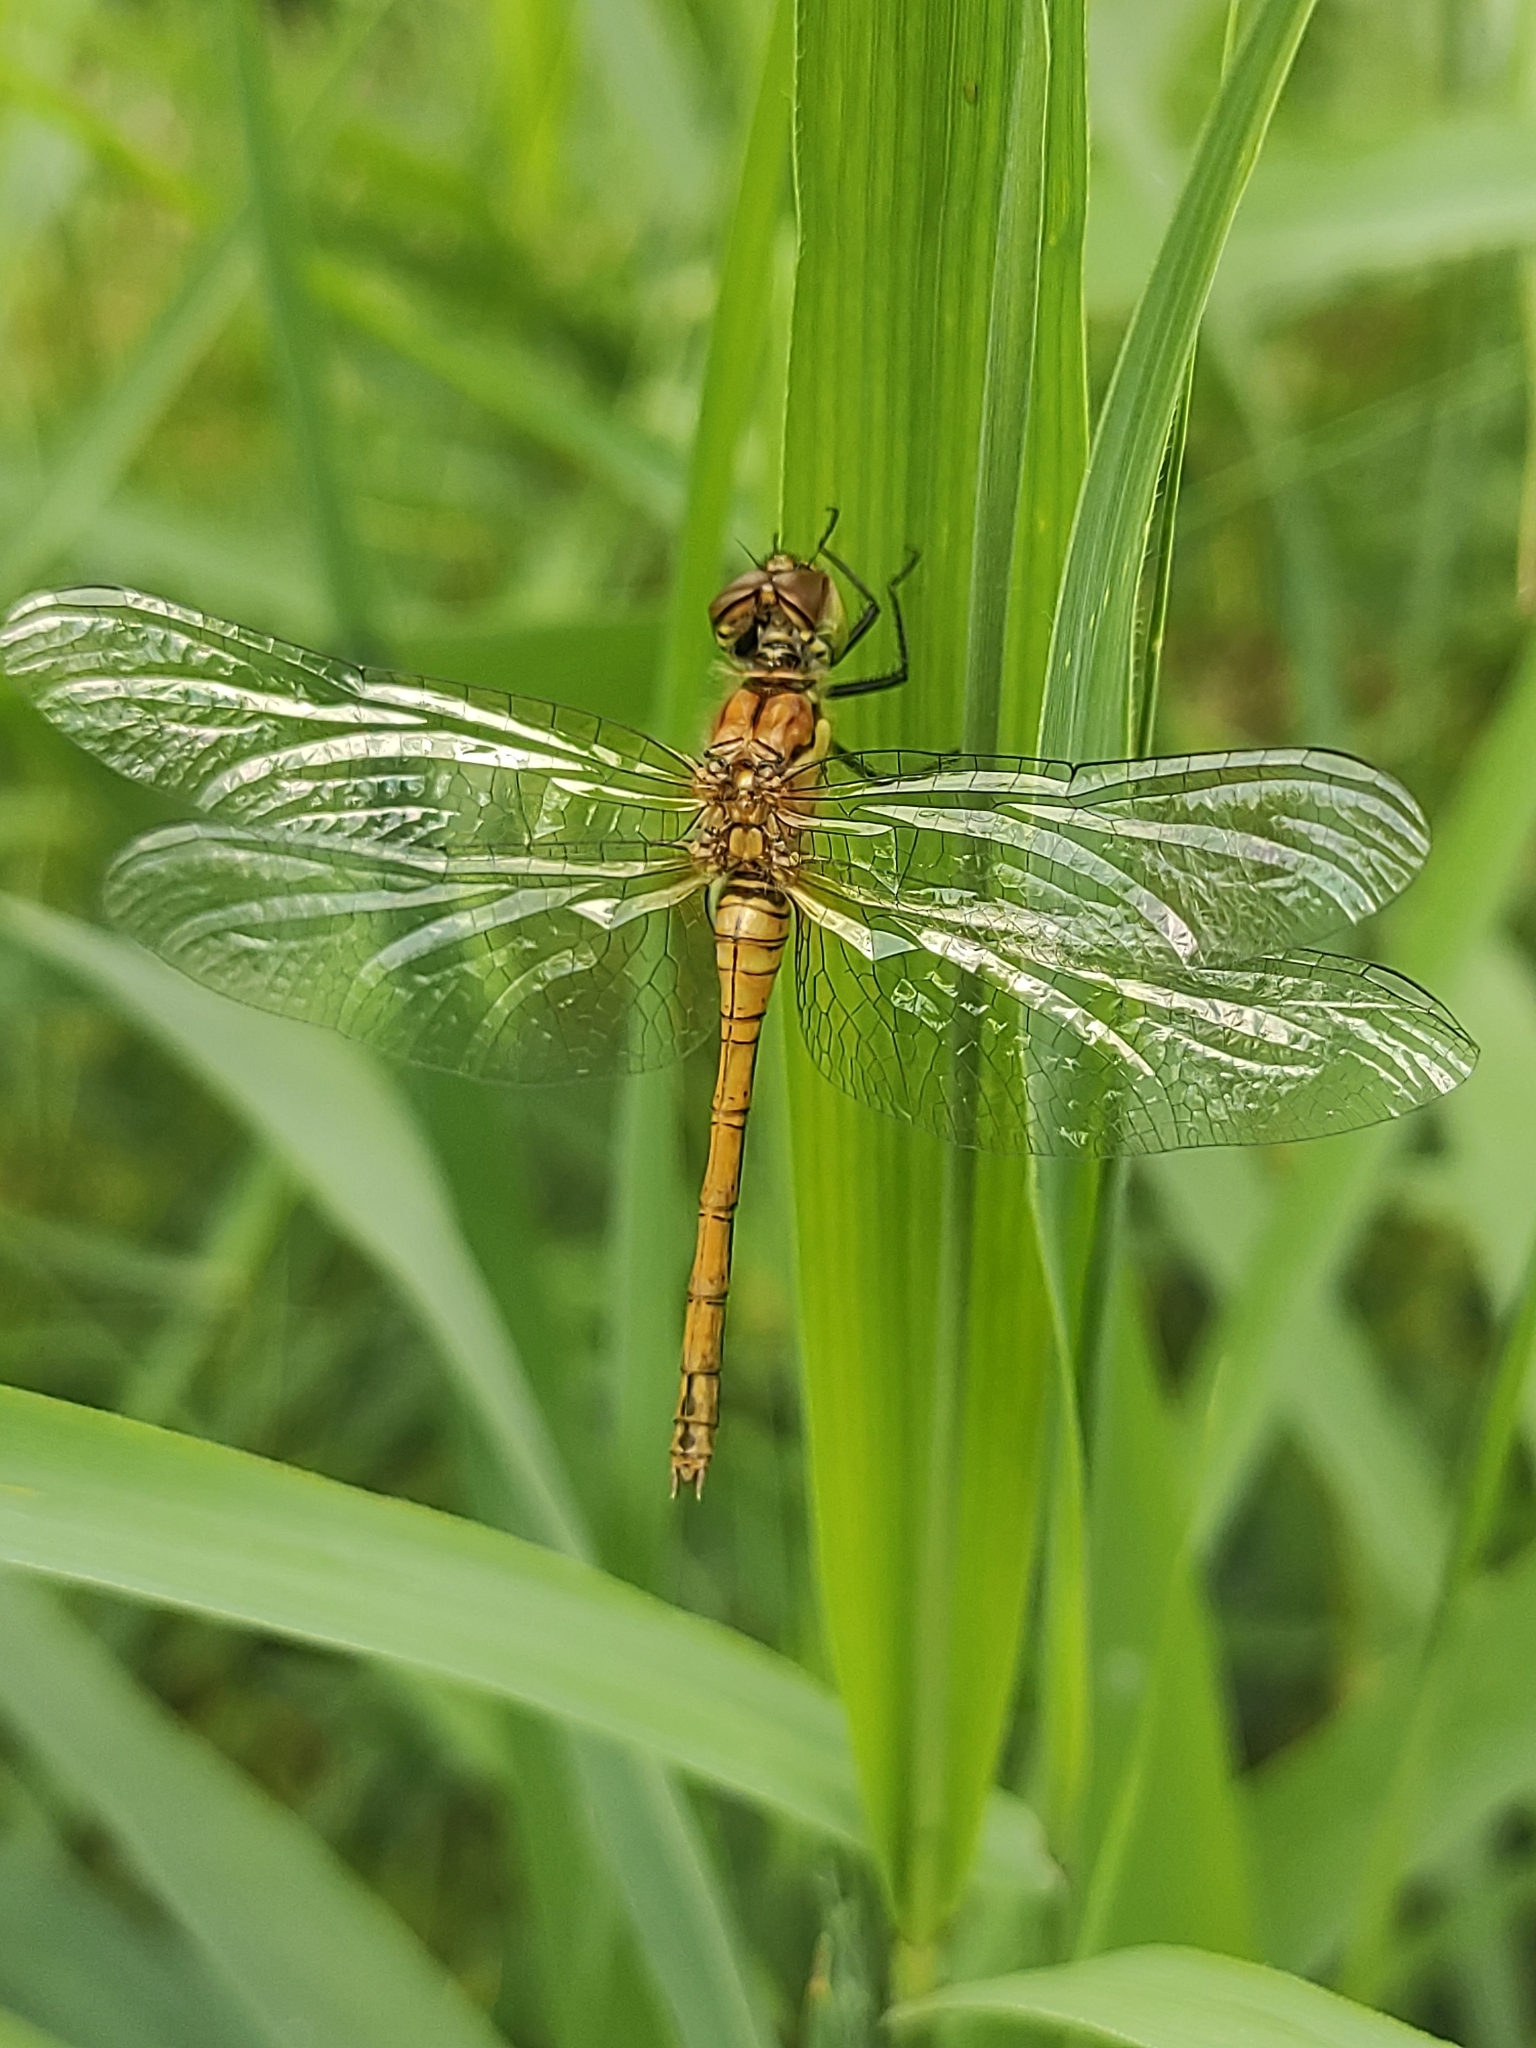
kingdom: Animalia
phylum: Arthropoda
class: Insecta
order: Odonata
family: Libellulidae
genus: Sympetrum
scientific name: Sympetrum sanguineum
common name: Ruddy darter
